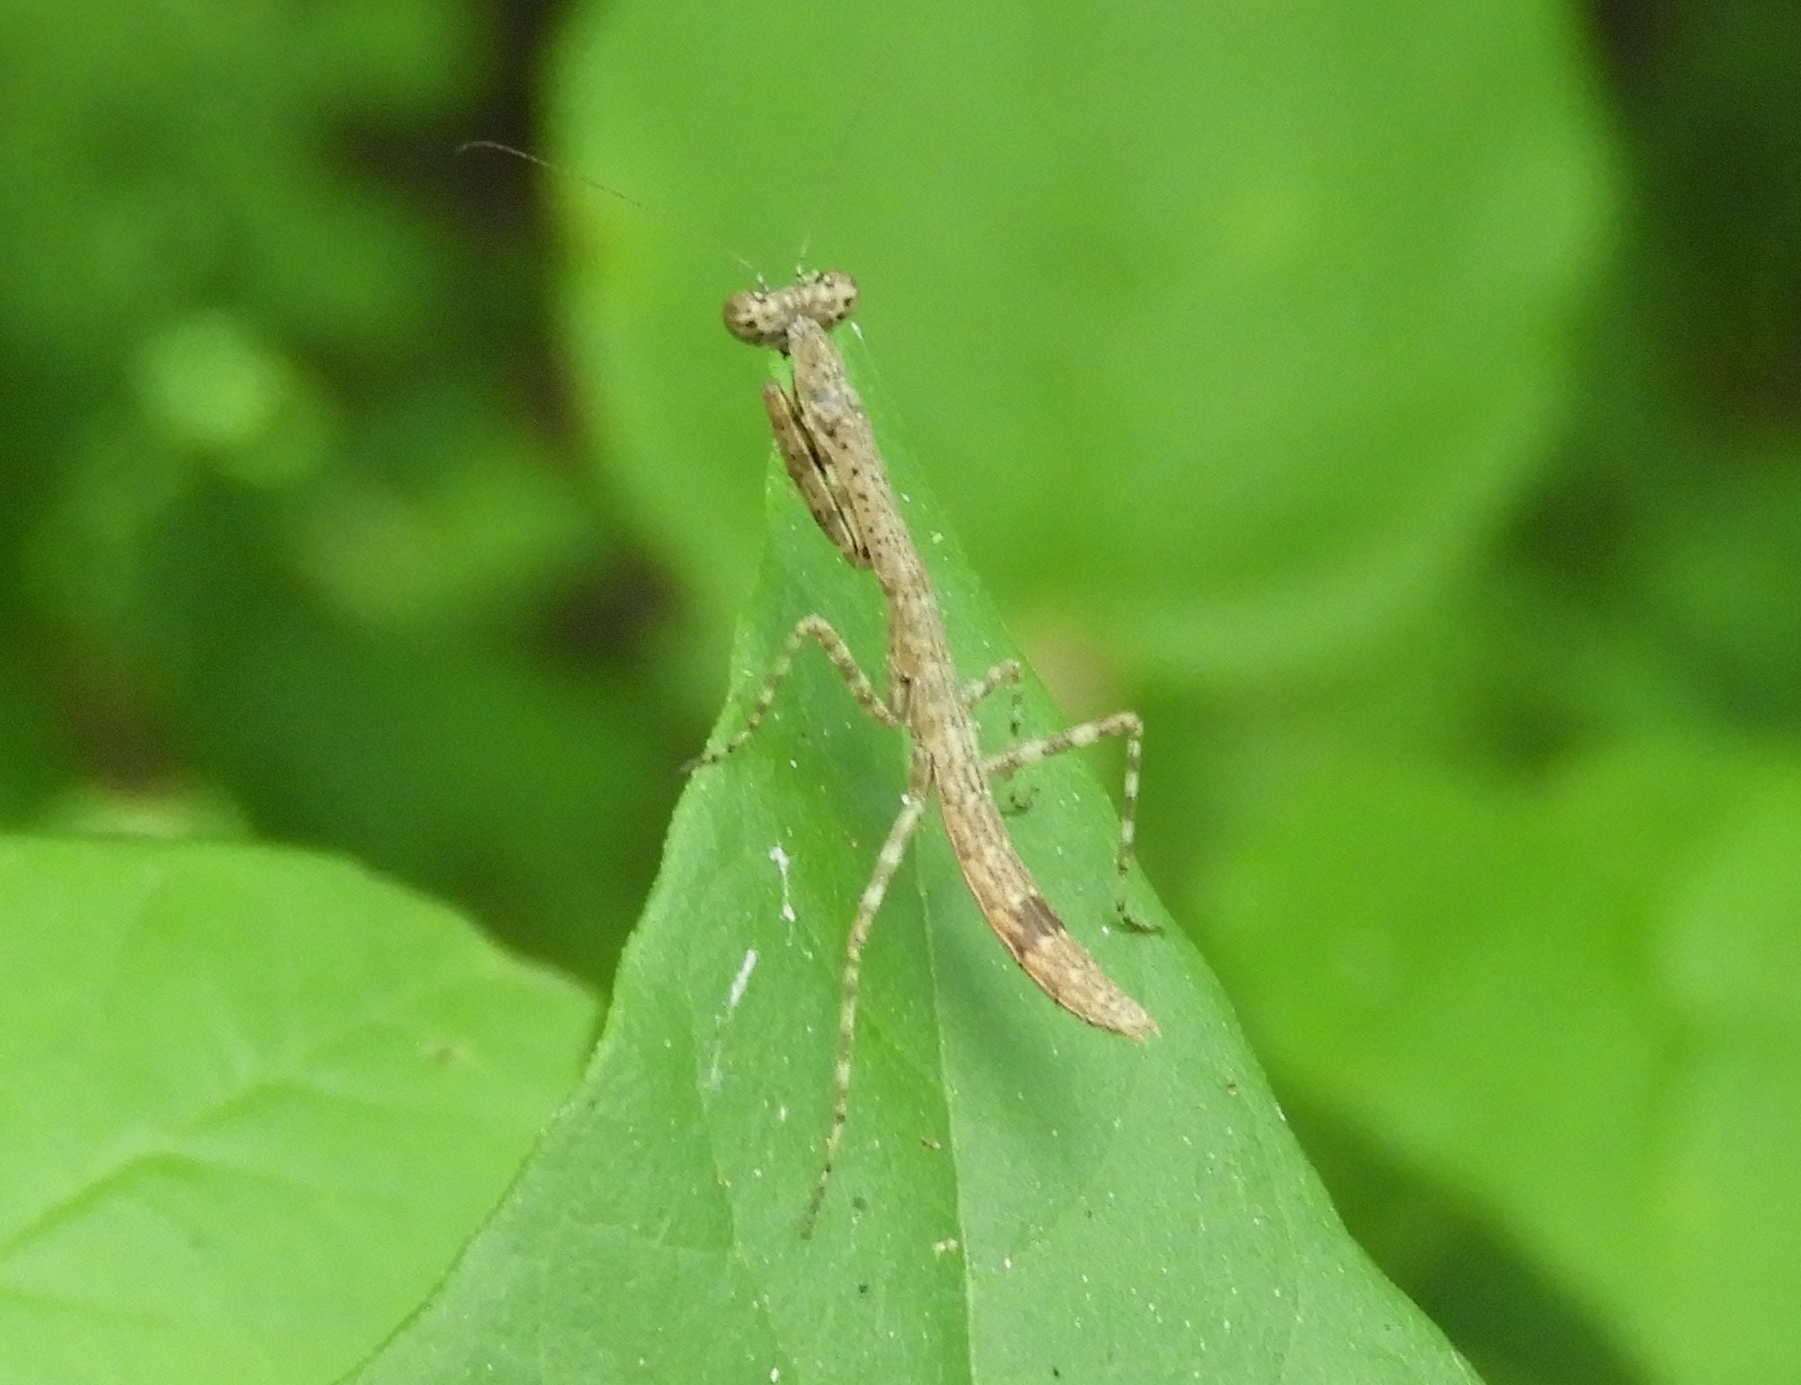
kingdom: Animalia
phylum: Arthropoda
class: Insecta
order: Mantodea
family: Mantidae
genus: Melliera
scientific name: Melliera chorotega
